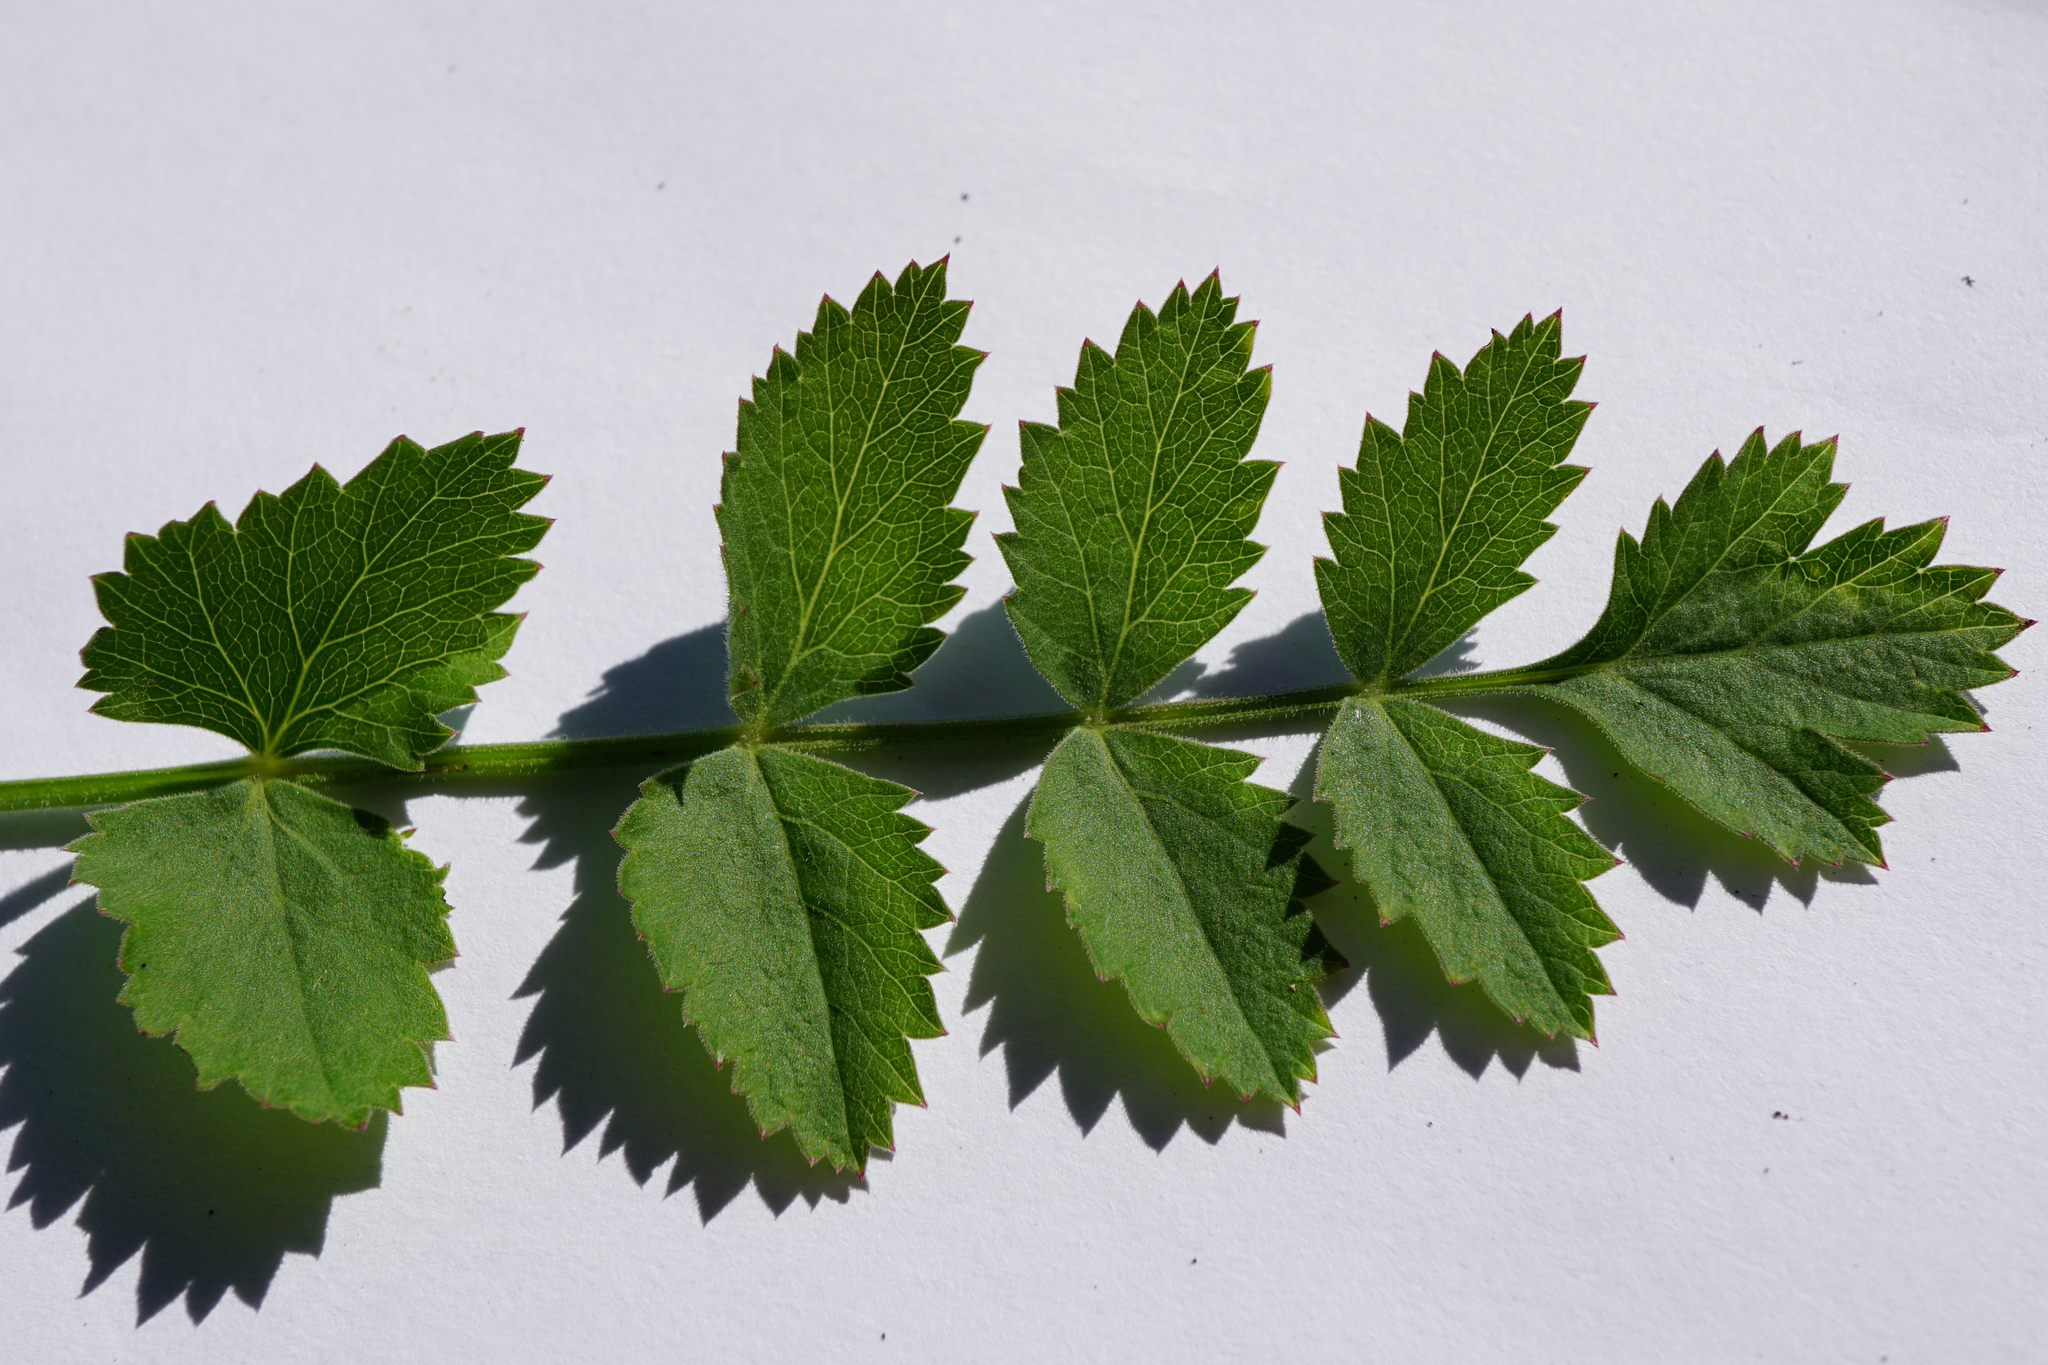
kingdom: Plantae
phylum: Tracheophyta
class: Magnoliopsida
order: Apiales
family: Apiaceae
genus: Pimpinella
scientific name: Pimpinella saxifraga
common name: Burnet-saxifrage
